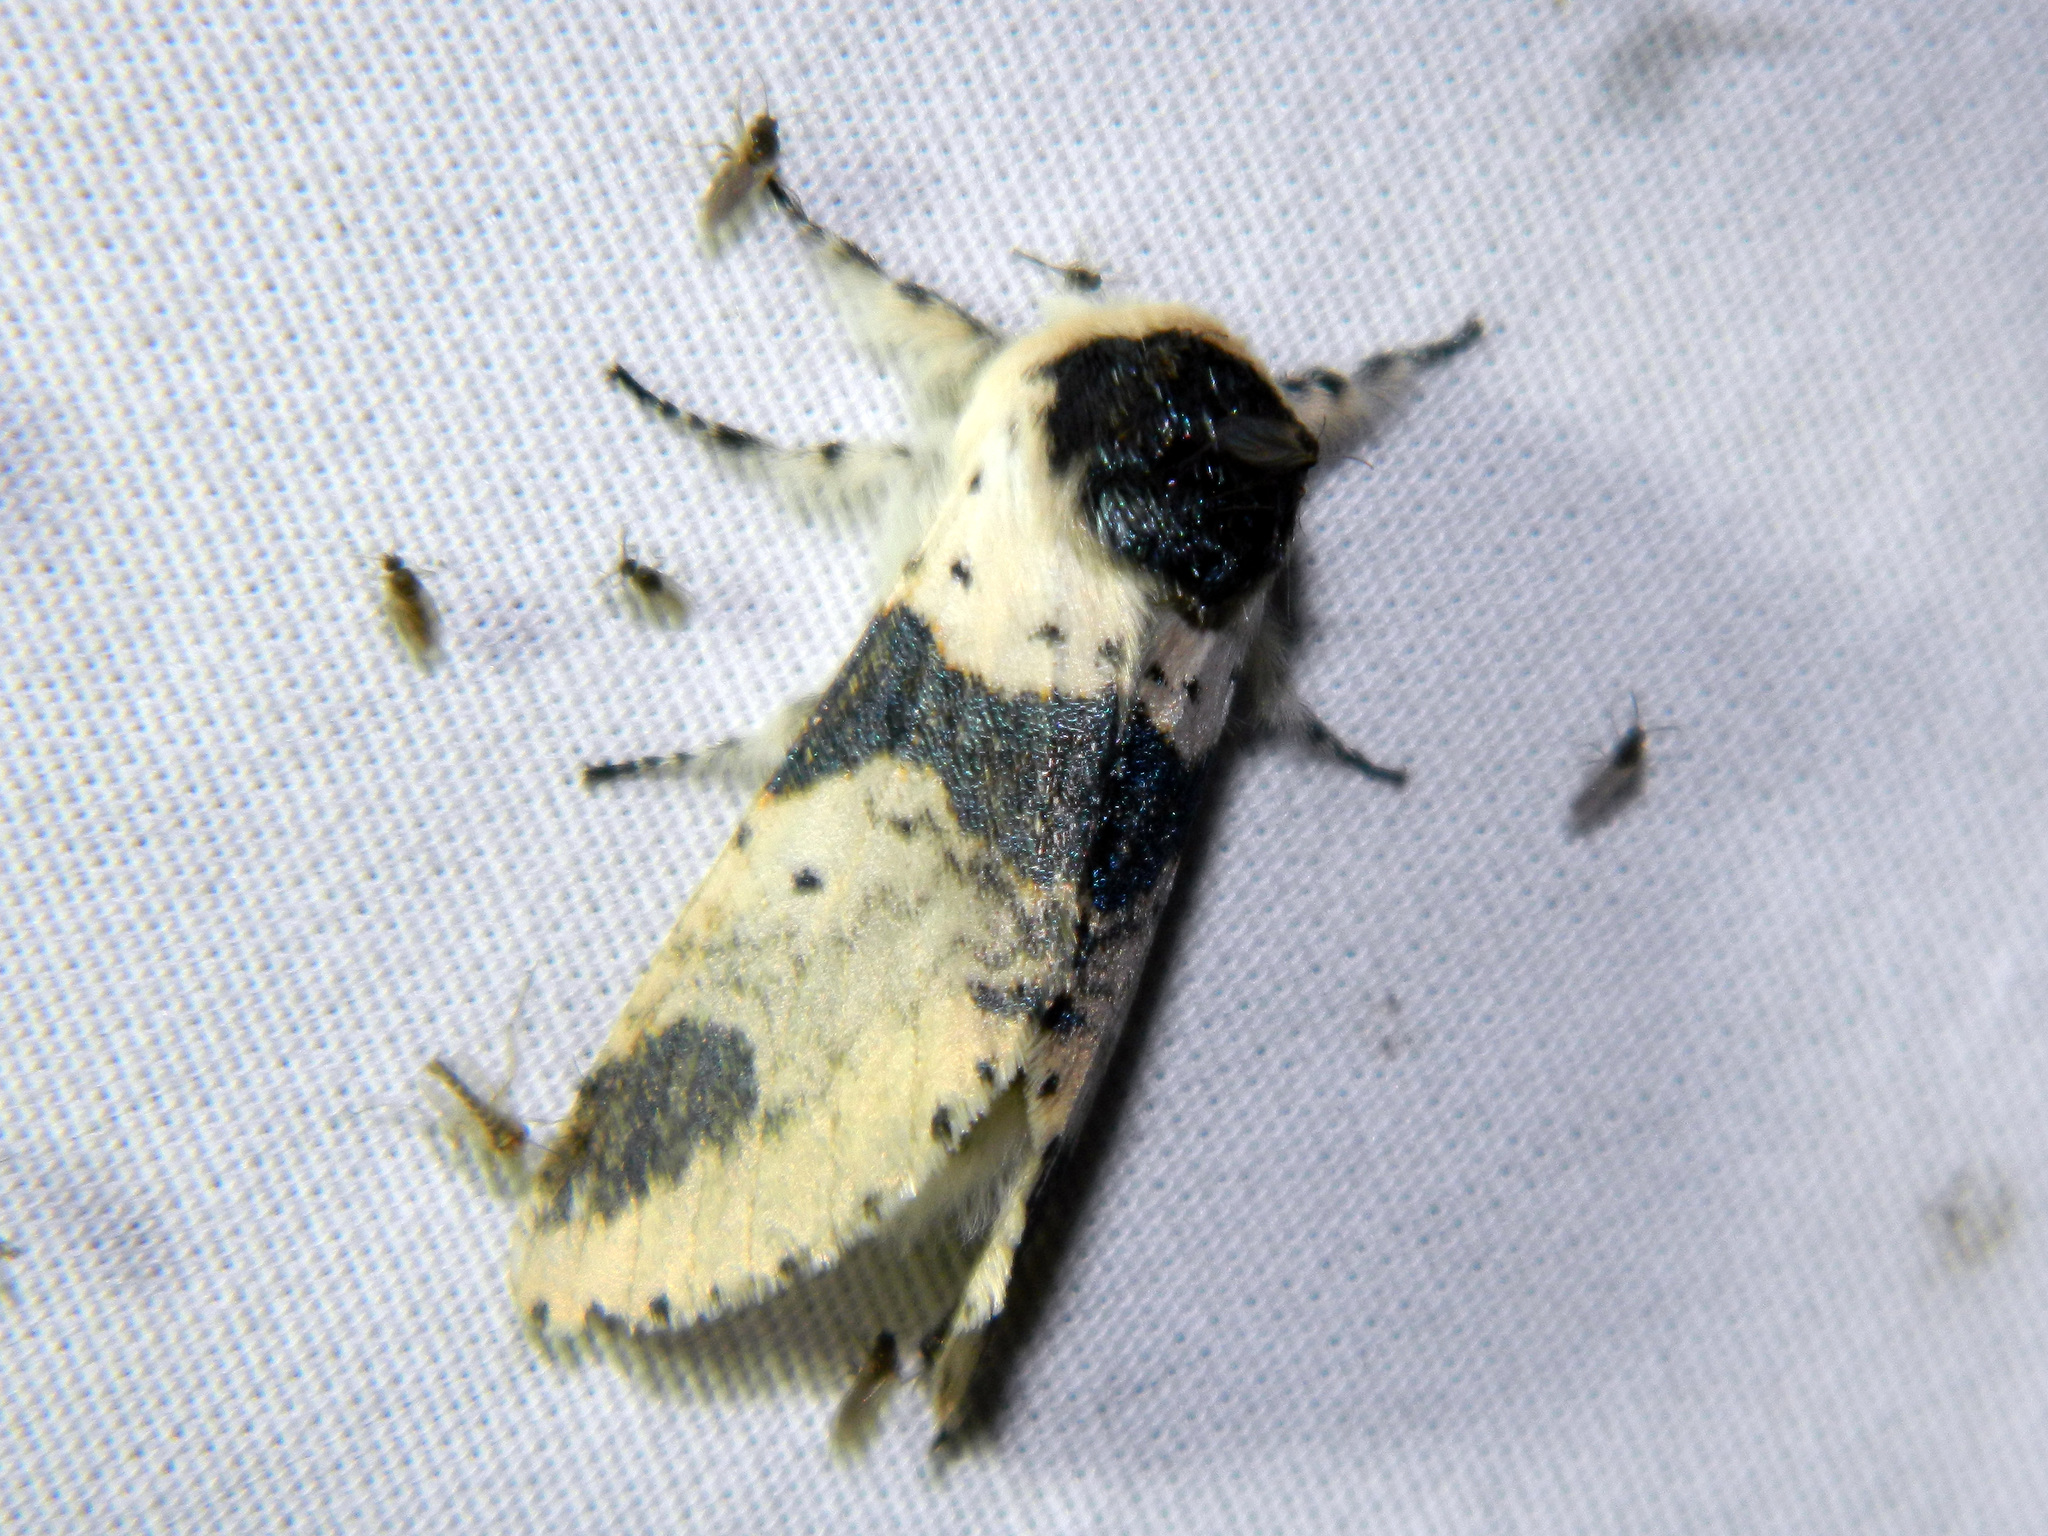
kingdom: Animalia
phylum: Arthropoda
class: Insecta
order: Lepidoptera
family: Notodontidae
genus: Furcula
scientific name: Furcula modesta
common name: Modest furcula moth
